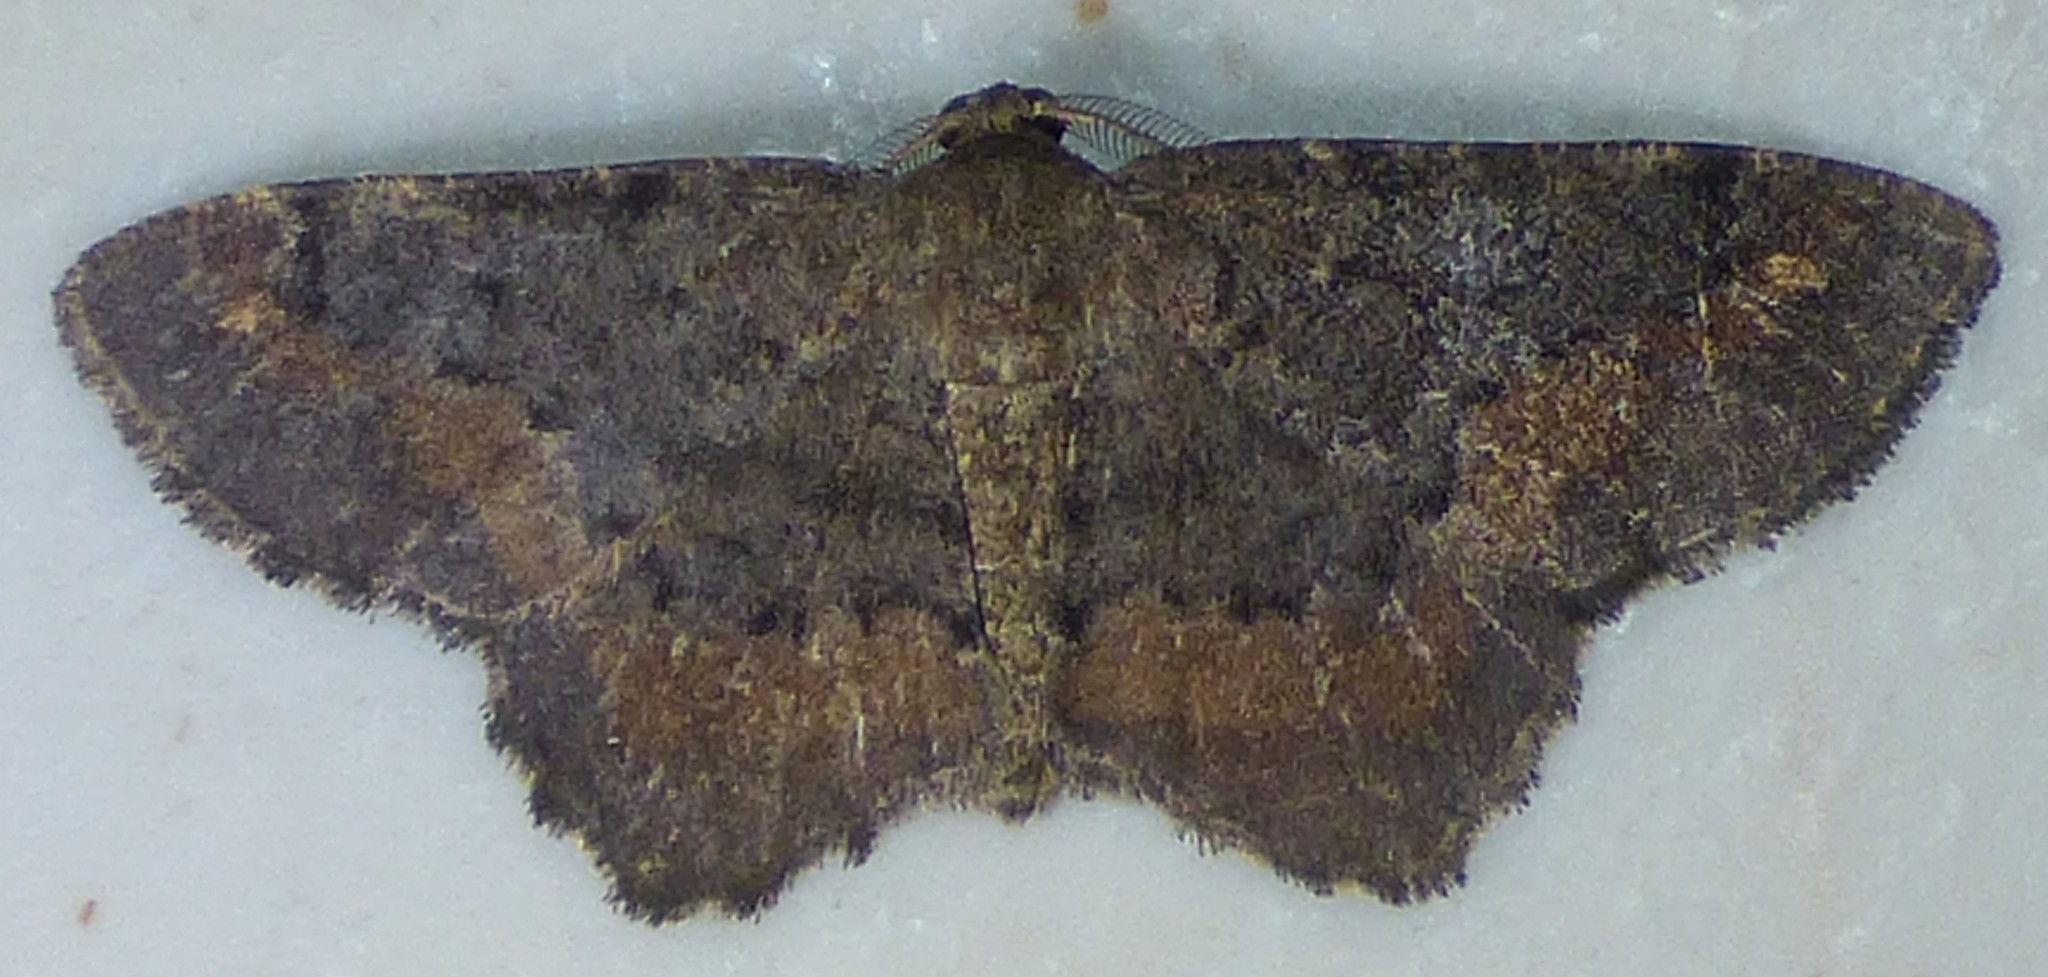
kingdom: Animalia
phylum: Arthropoda
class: Insecta
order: Lepidoptera
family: Geometridae
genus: Hypagyrtis
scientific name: Hypagyrtis esther
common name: Esther moth
